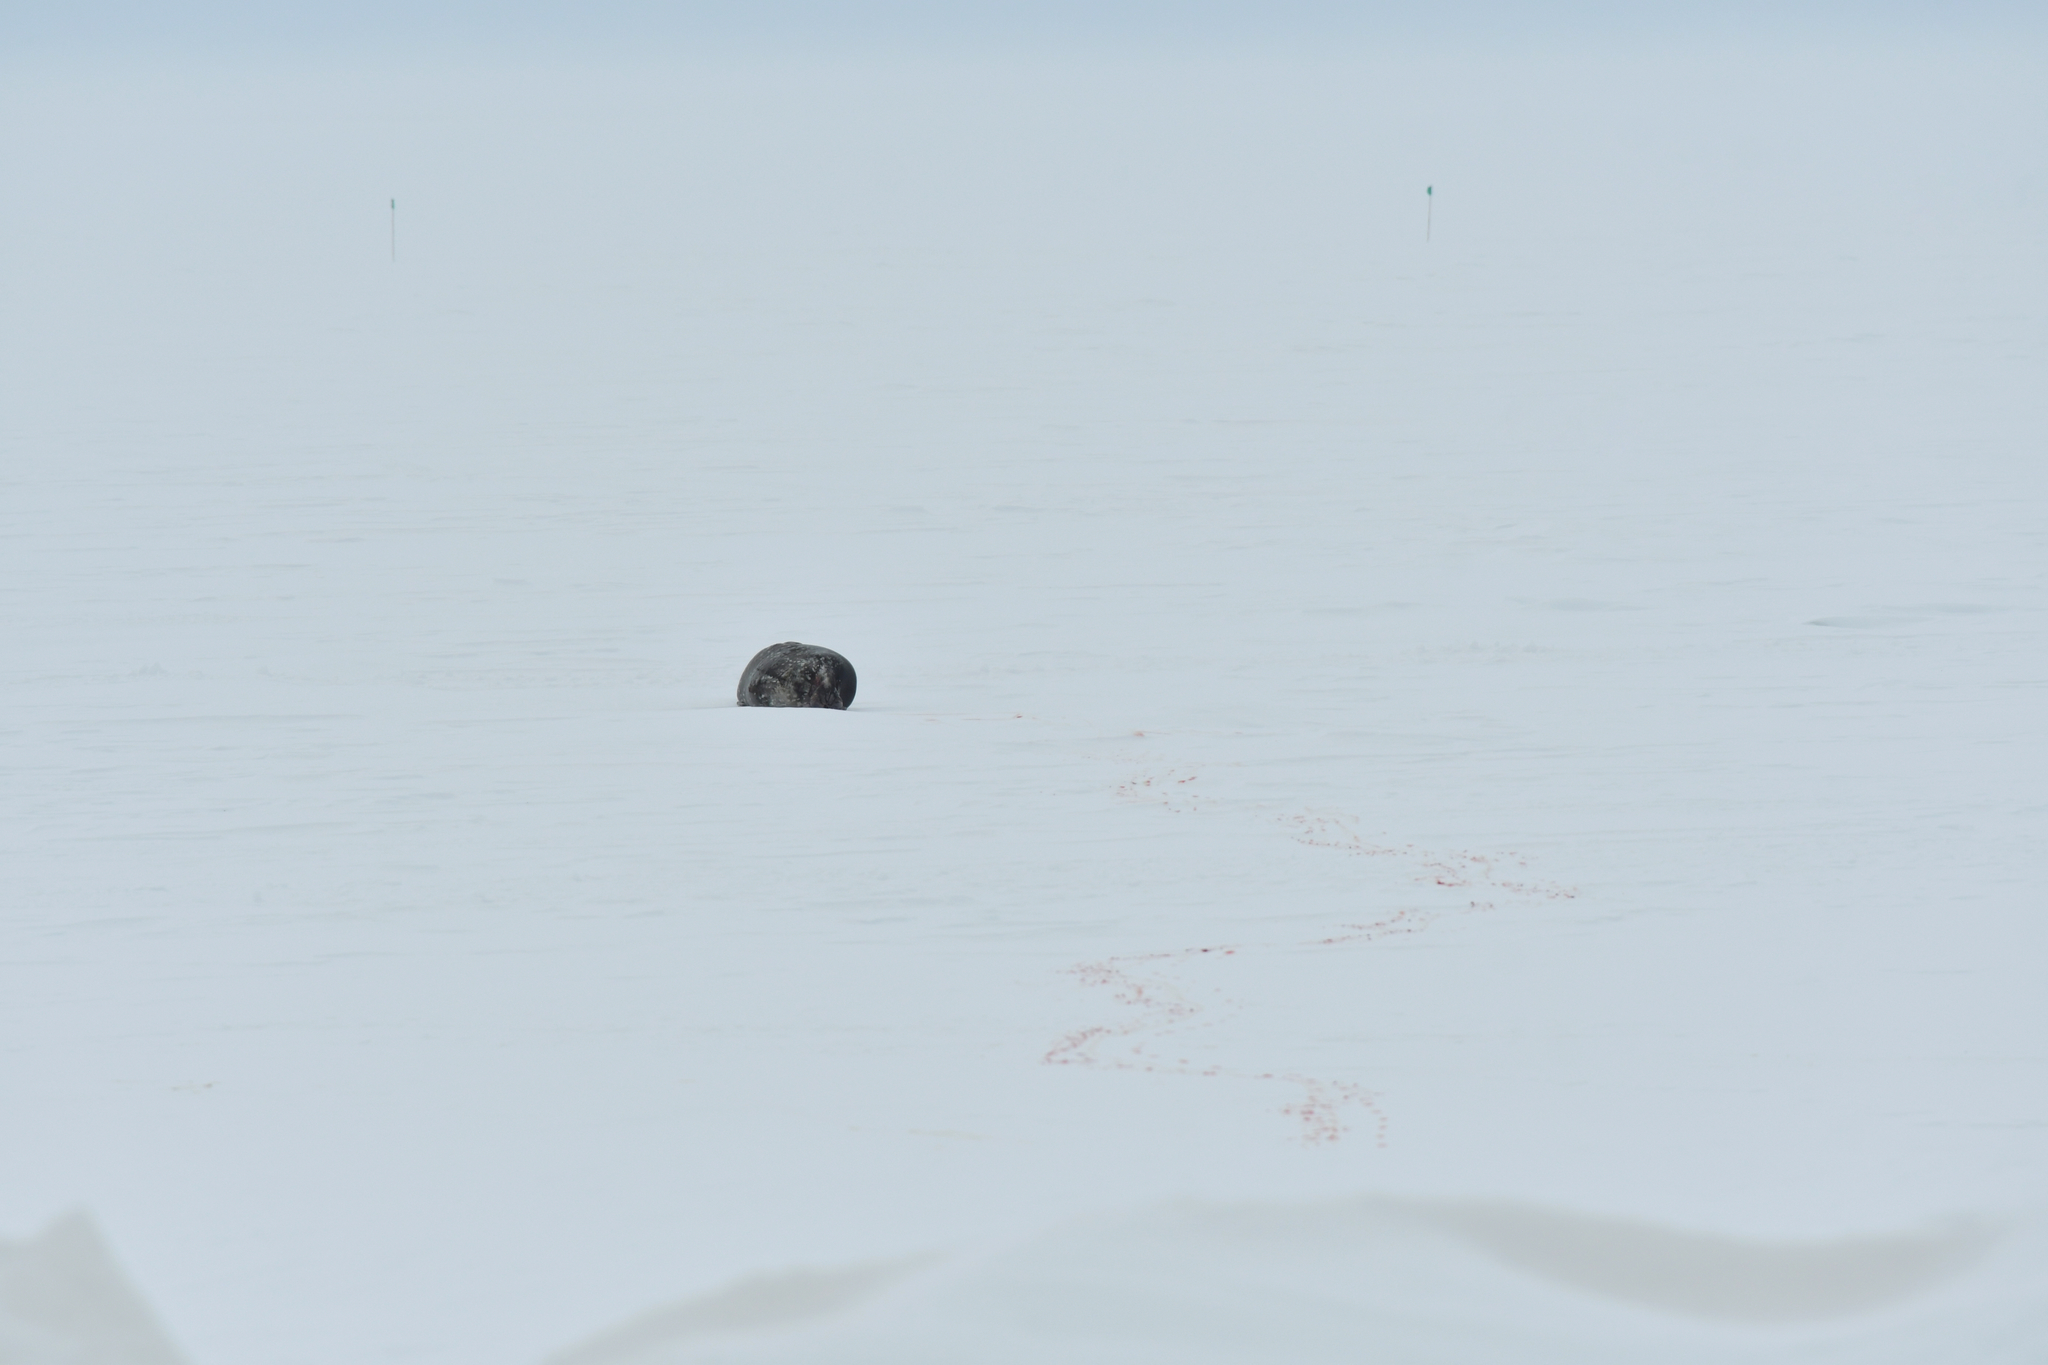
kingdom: Animalia
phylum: Chordata
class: Mammalia
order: Carnivora
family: Phocidae
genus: Leptonychotes
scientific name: Leptonychotes weddellii
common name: Weddell seal
